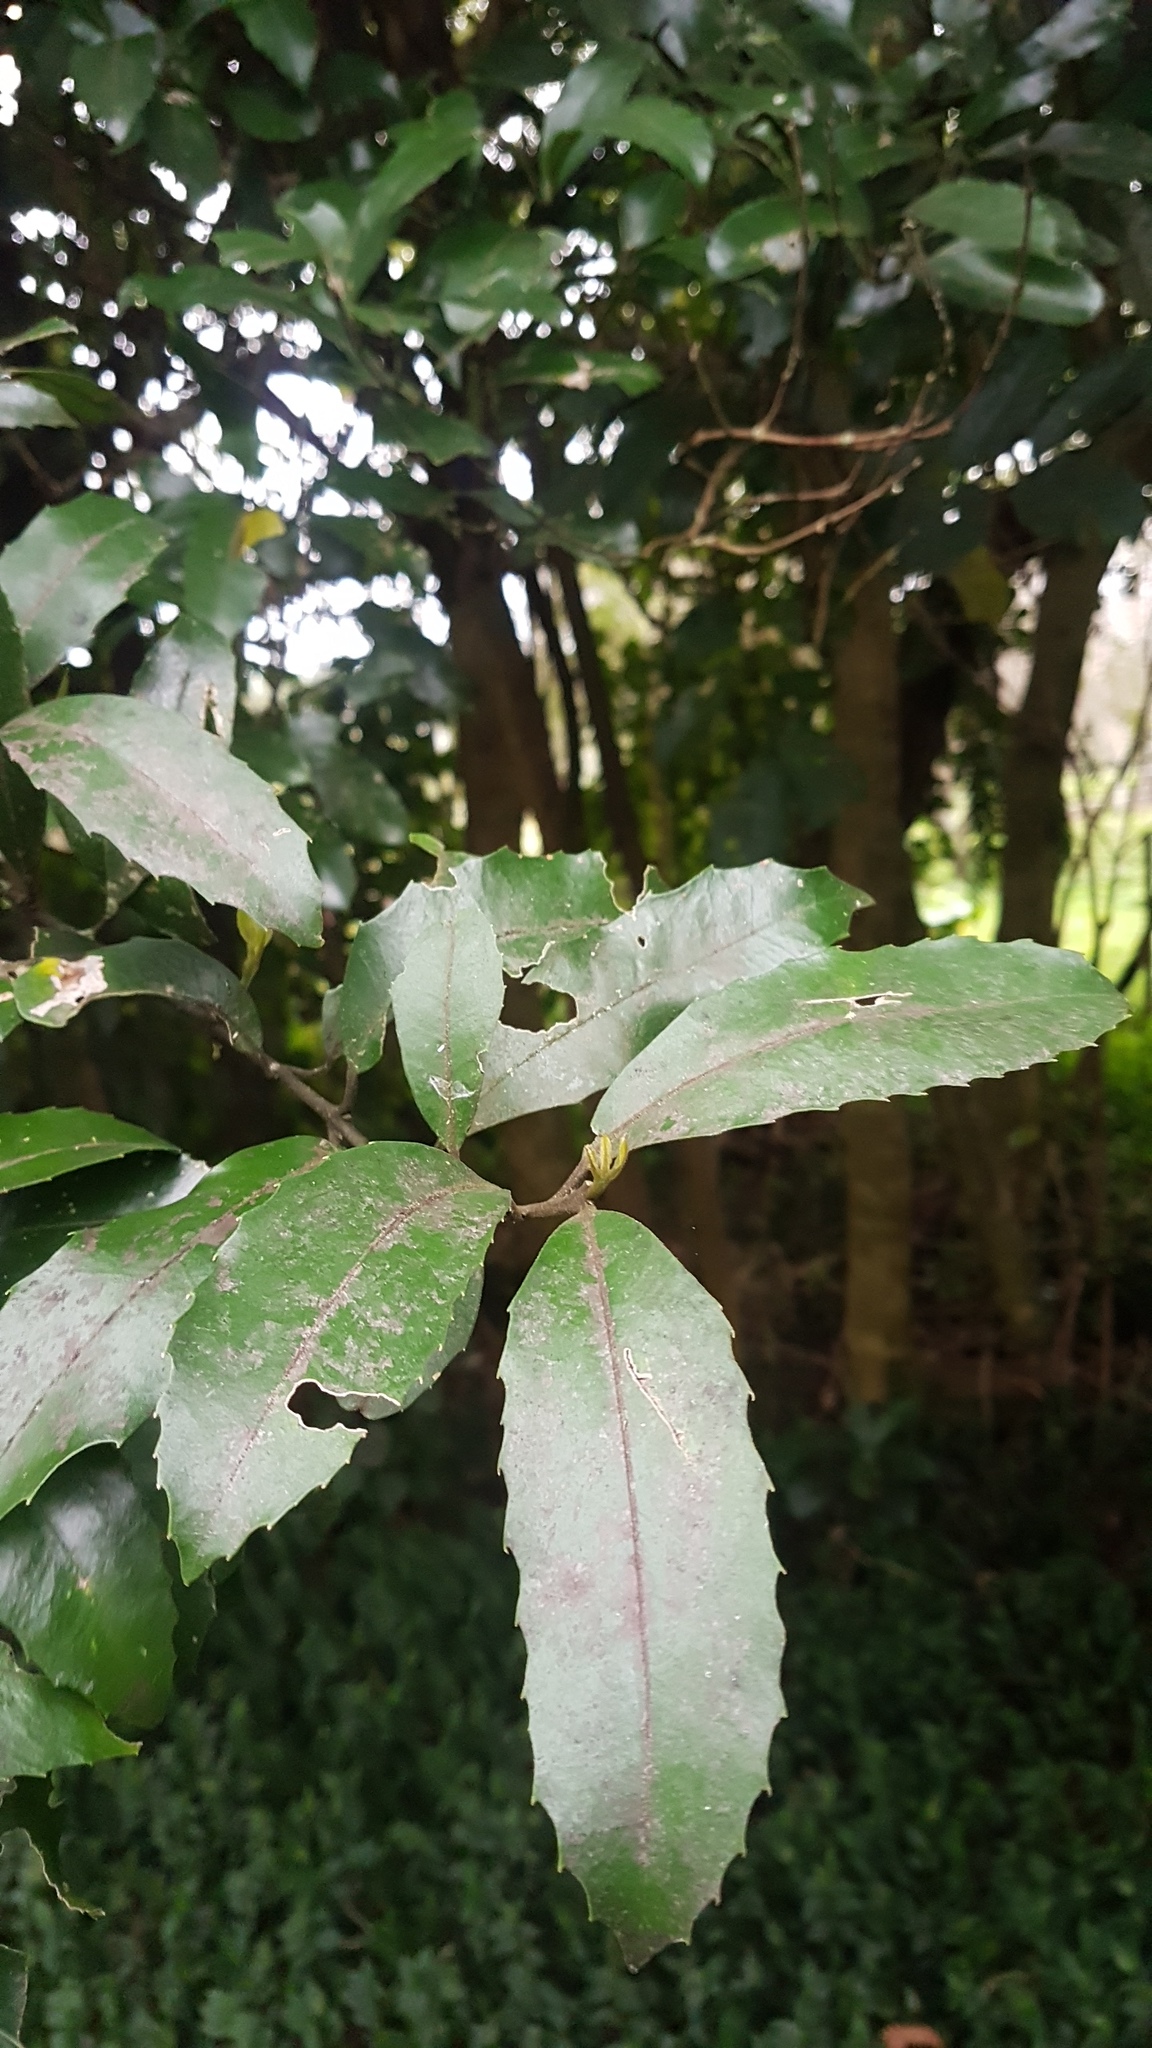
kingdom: Plantae
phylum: Tracheophyta
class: Magnoliopsida
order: Laurales
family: Monimiaceae
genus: Hedycarya
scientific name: Hedycarya arborea
